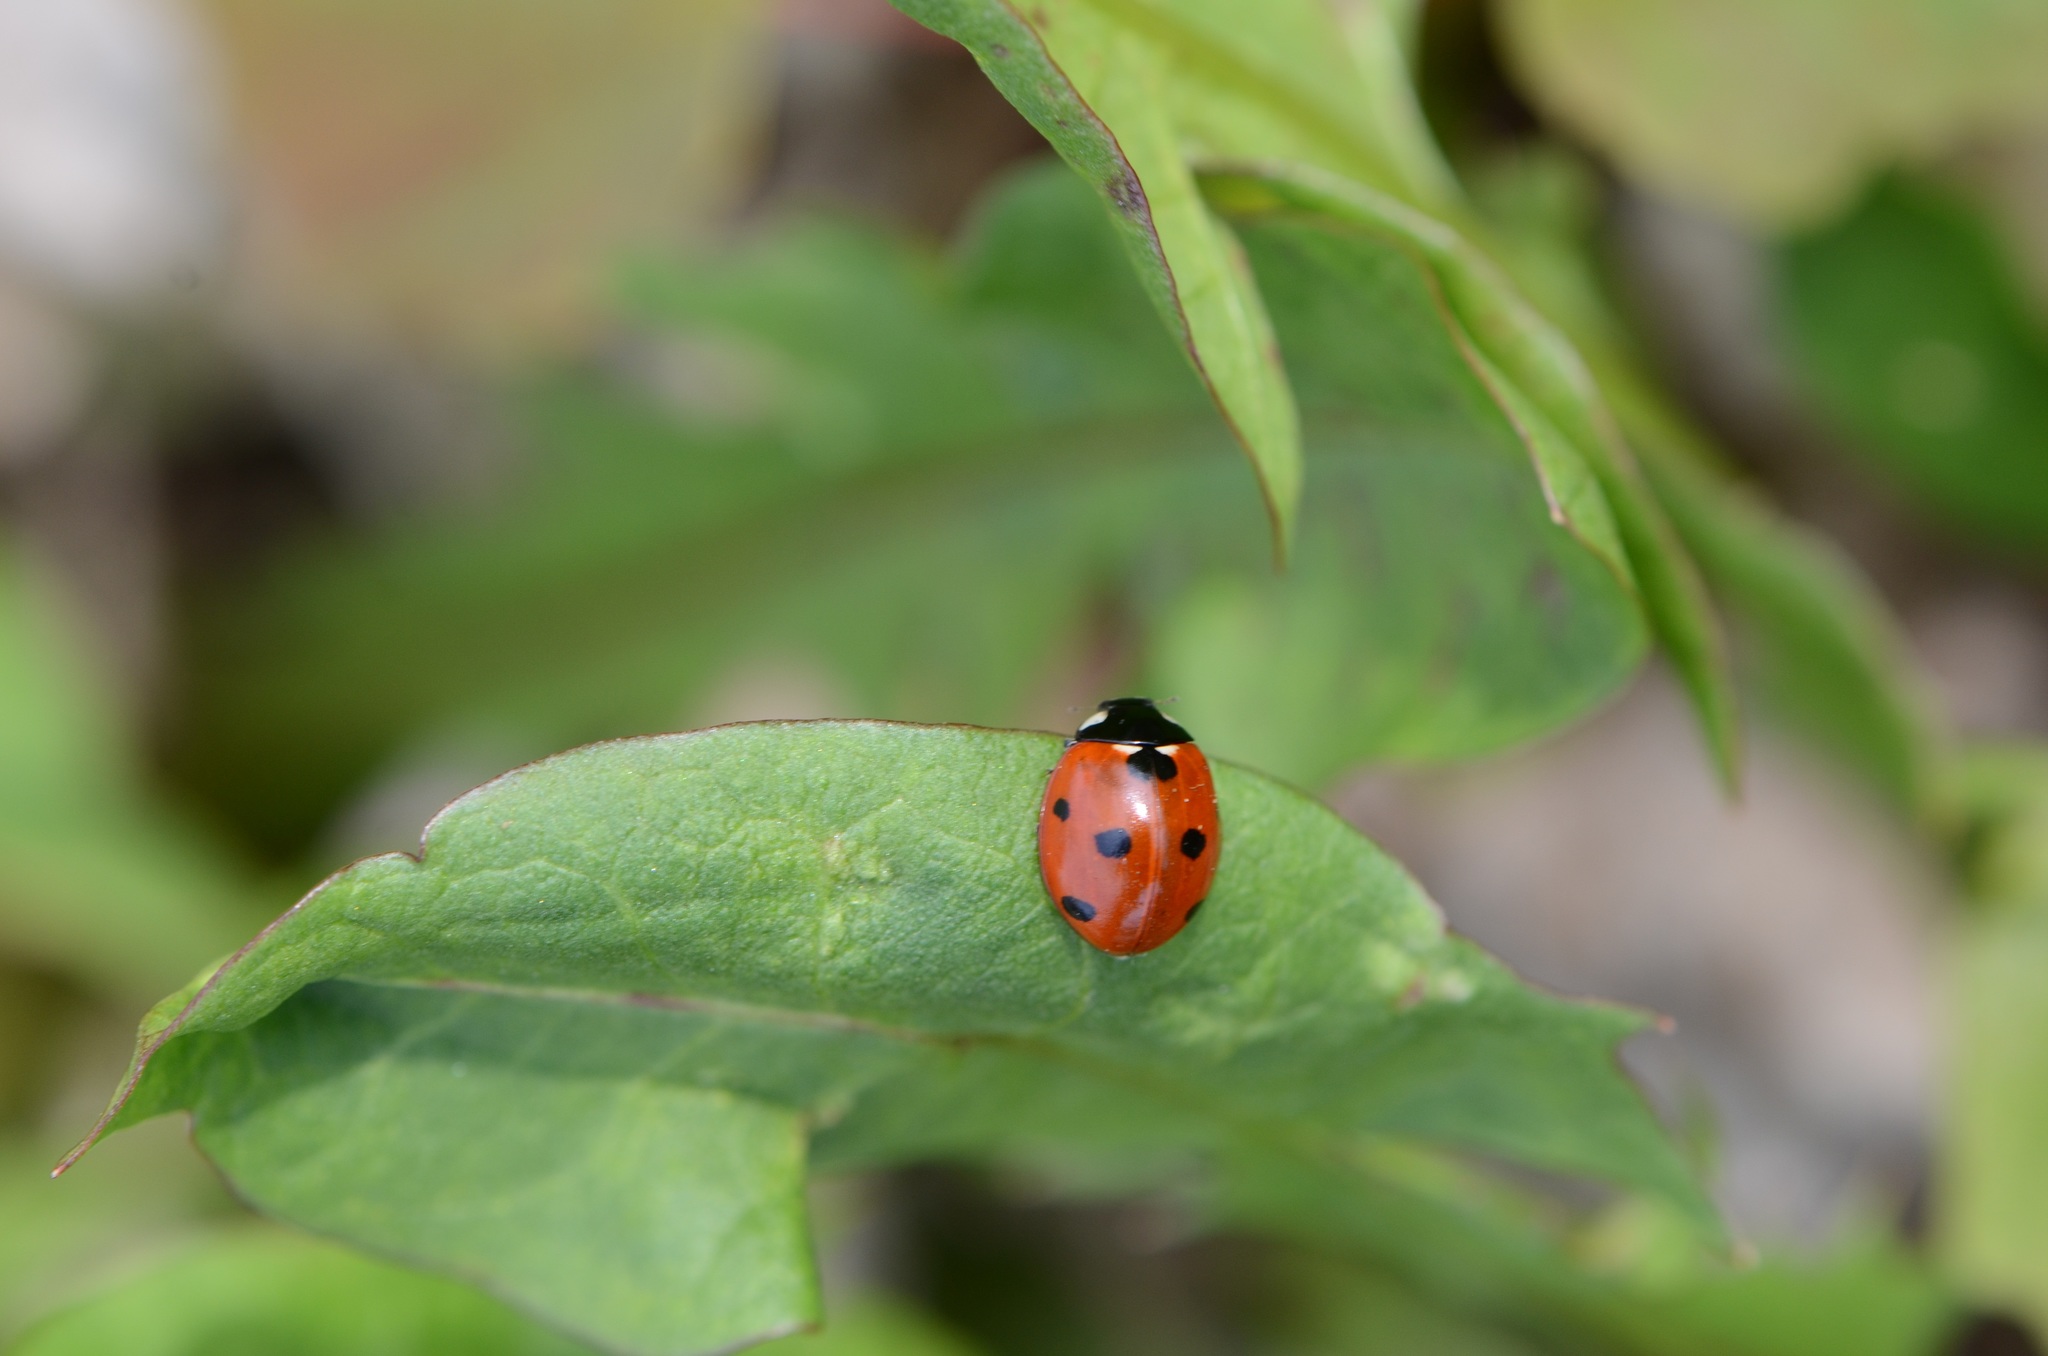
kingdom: Animalia
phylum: Arthropoda
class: Insecta
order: Coleoptera
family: Coccinellidae
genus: Coccinella
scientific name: Coccinella septempunctata
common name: Sevenspotted lady beetle
